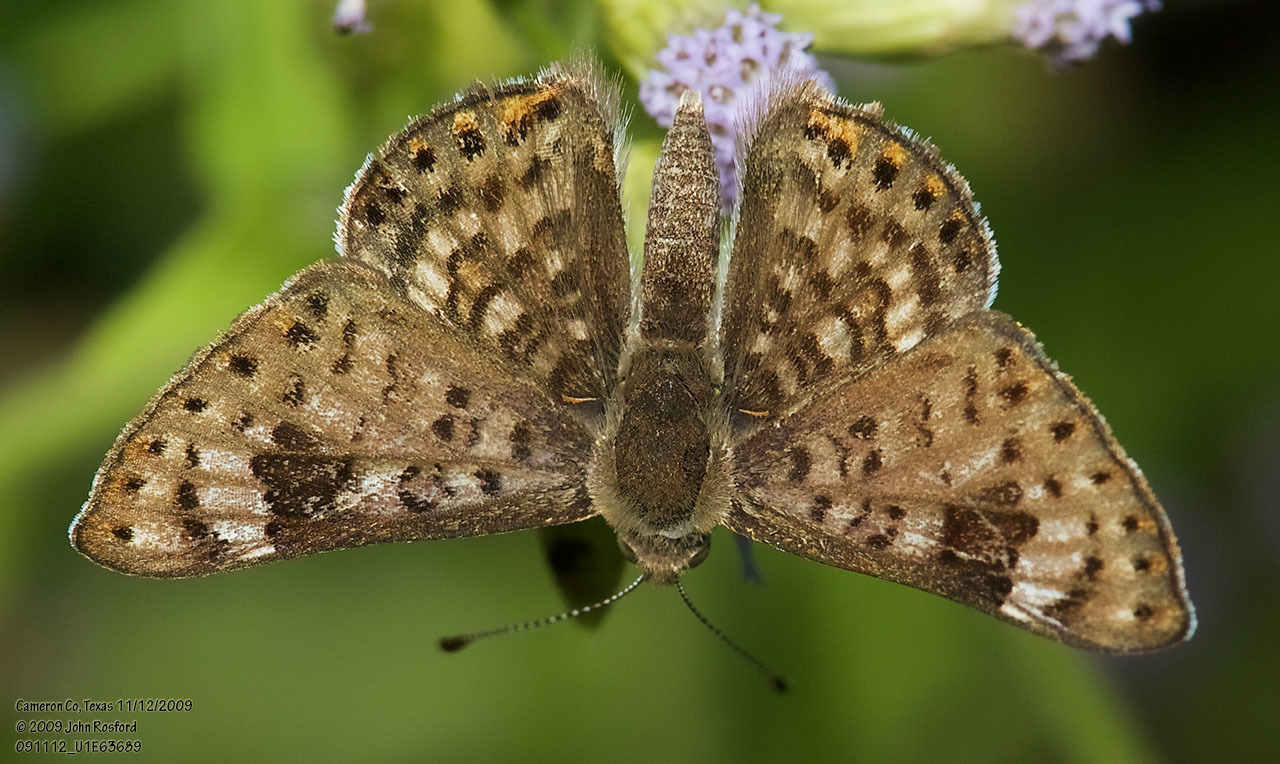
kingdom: Animalia
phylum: Arthropoda
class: Insecta
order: Lepidoptera
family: Riodinidae
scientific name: Riodinidae
